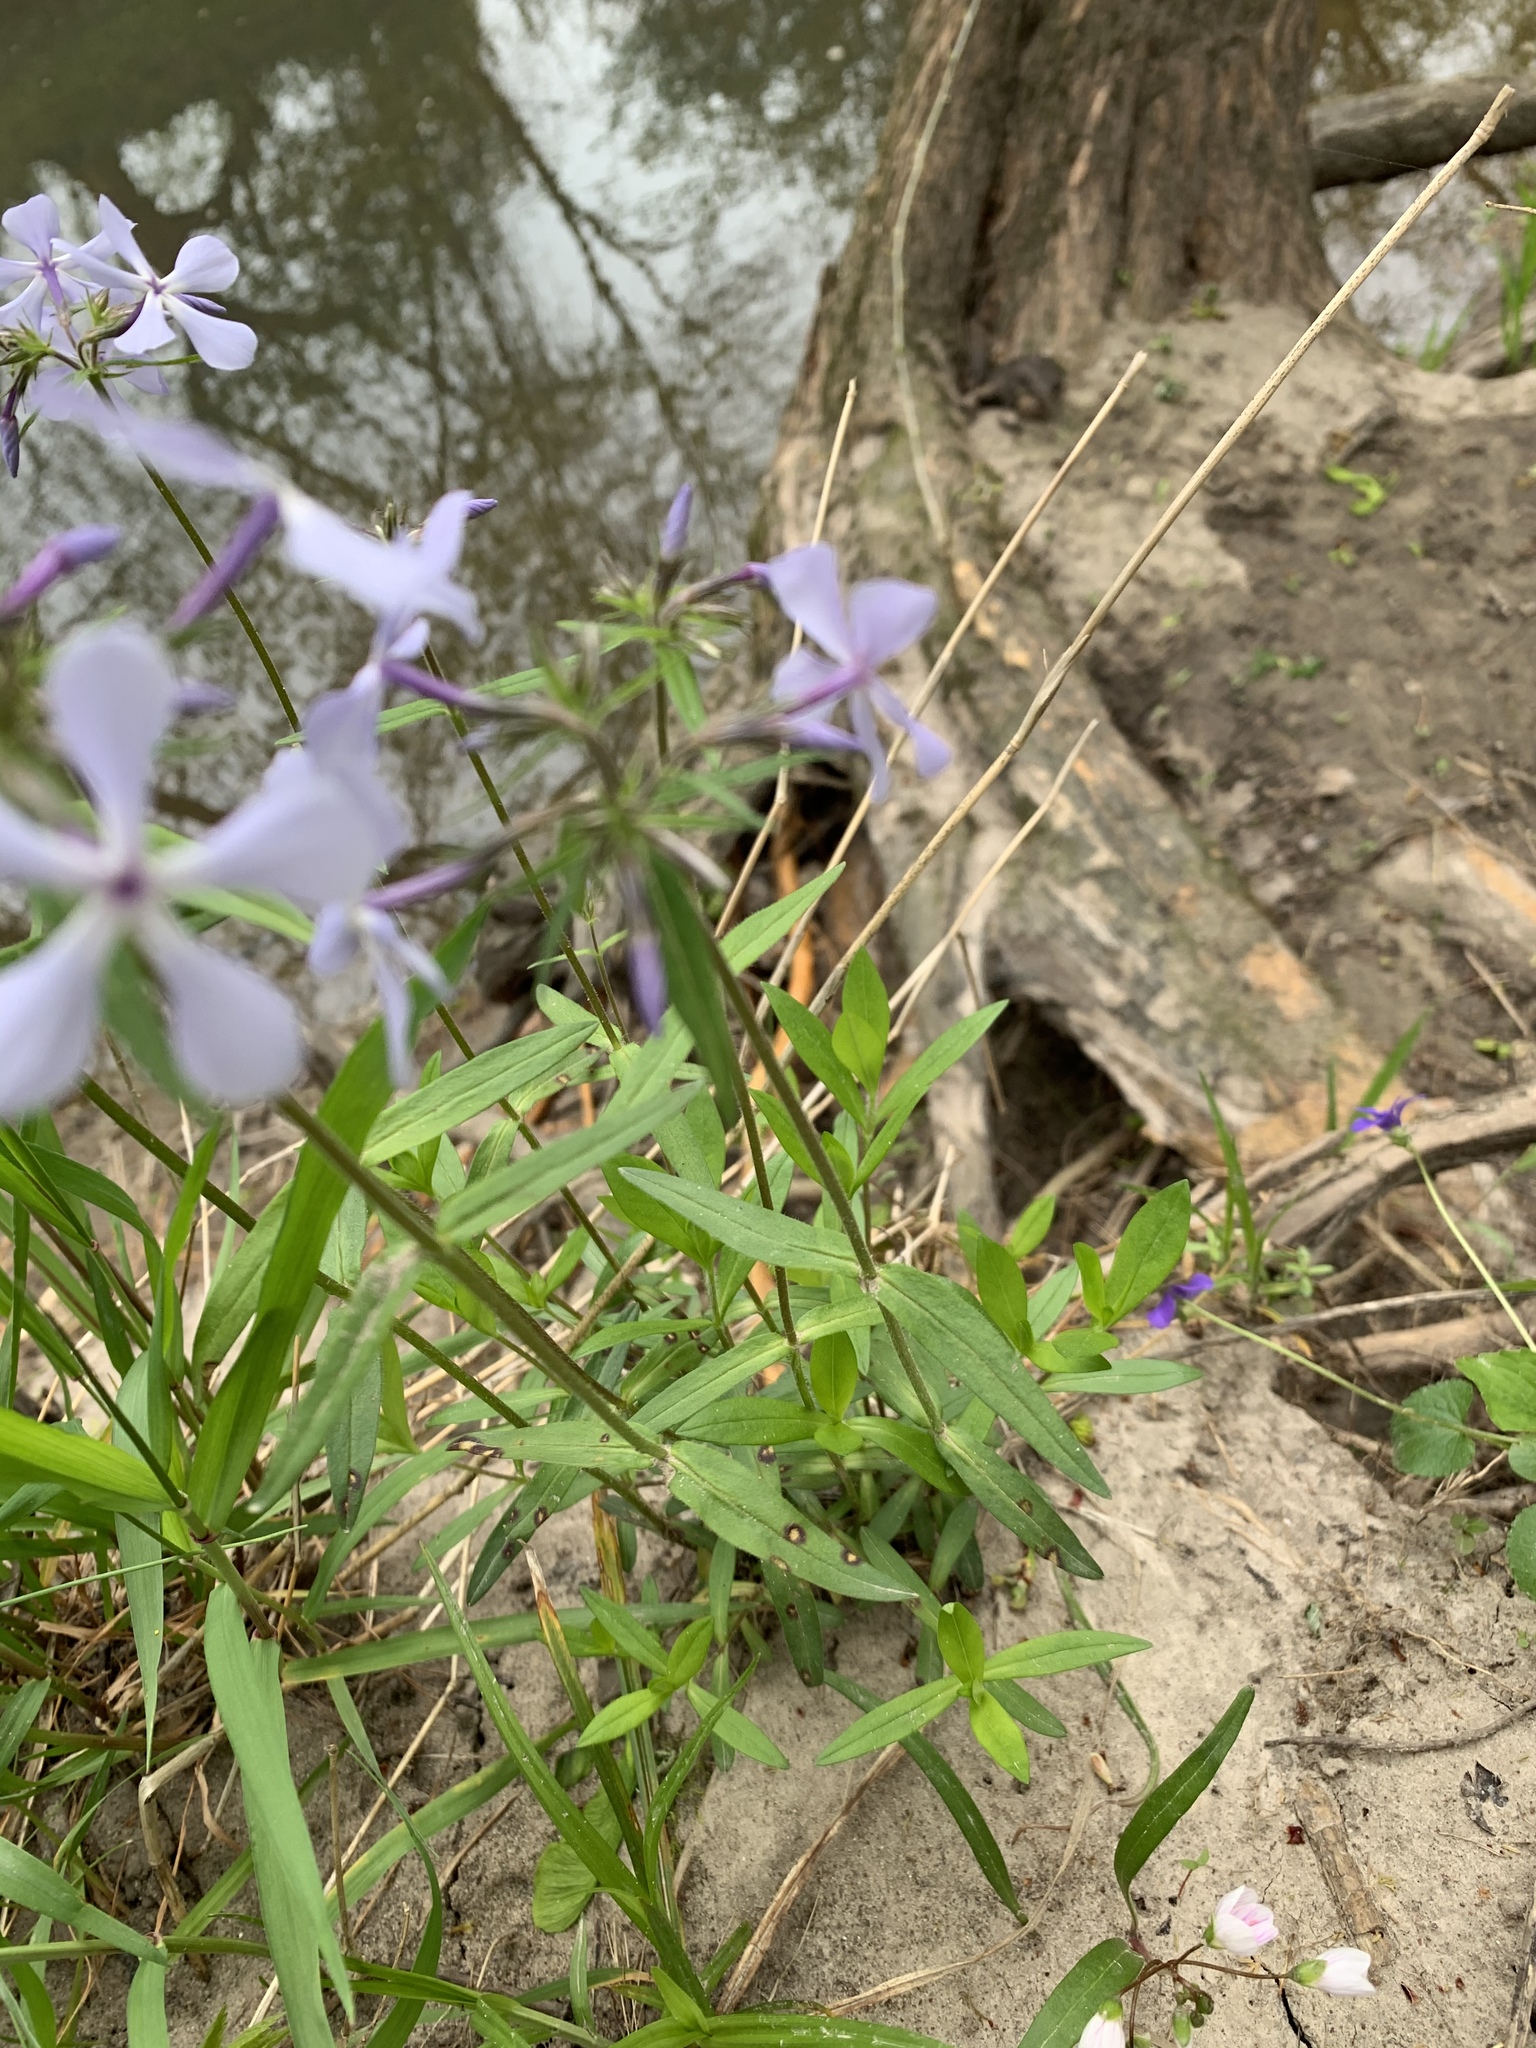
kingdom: Plantae
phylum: Tracheophyta
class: Magnoliopsida
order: Ericales
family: Polemoniaceae
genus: Phlox
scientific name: Phlox divaricata
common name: Blue phlox
